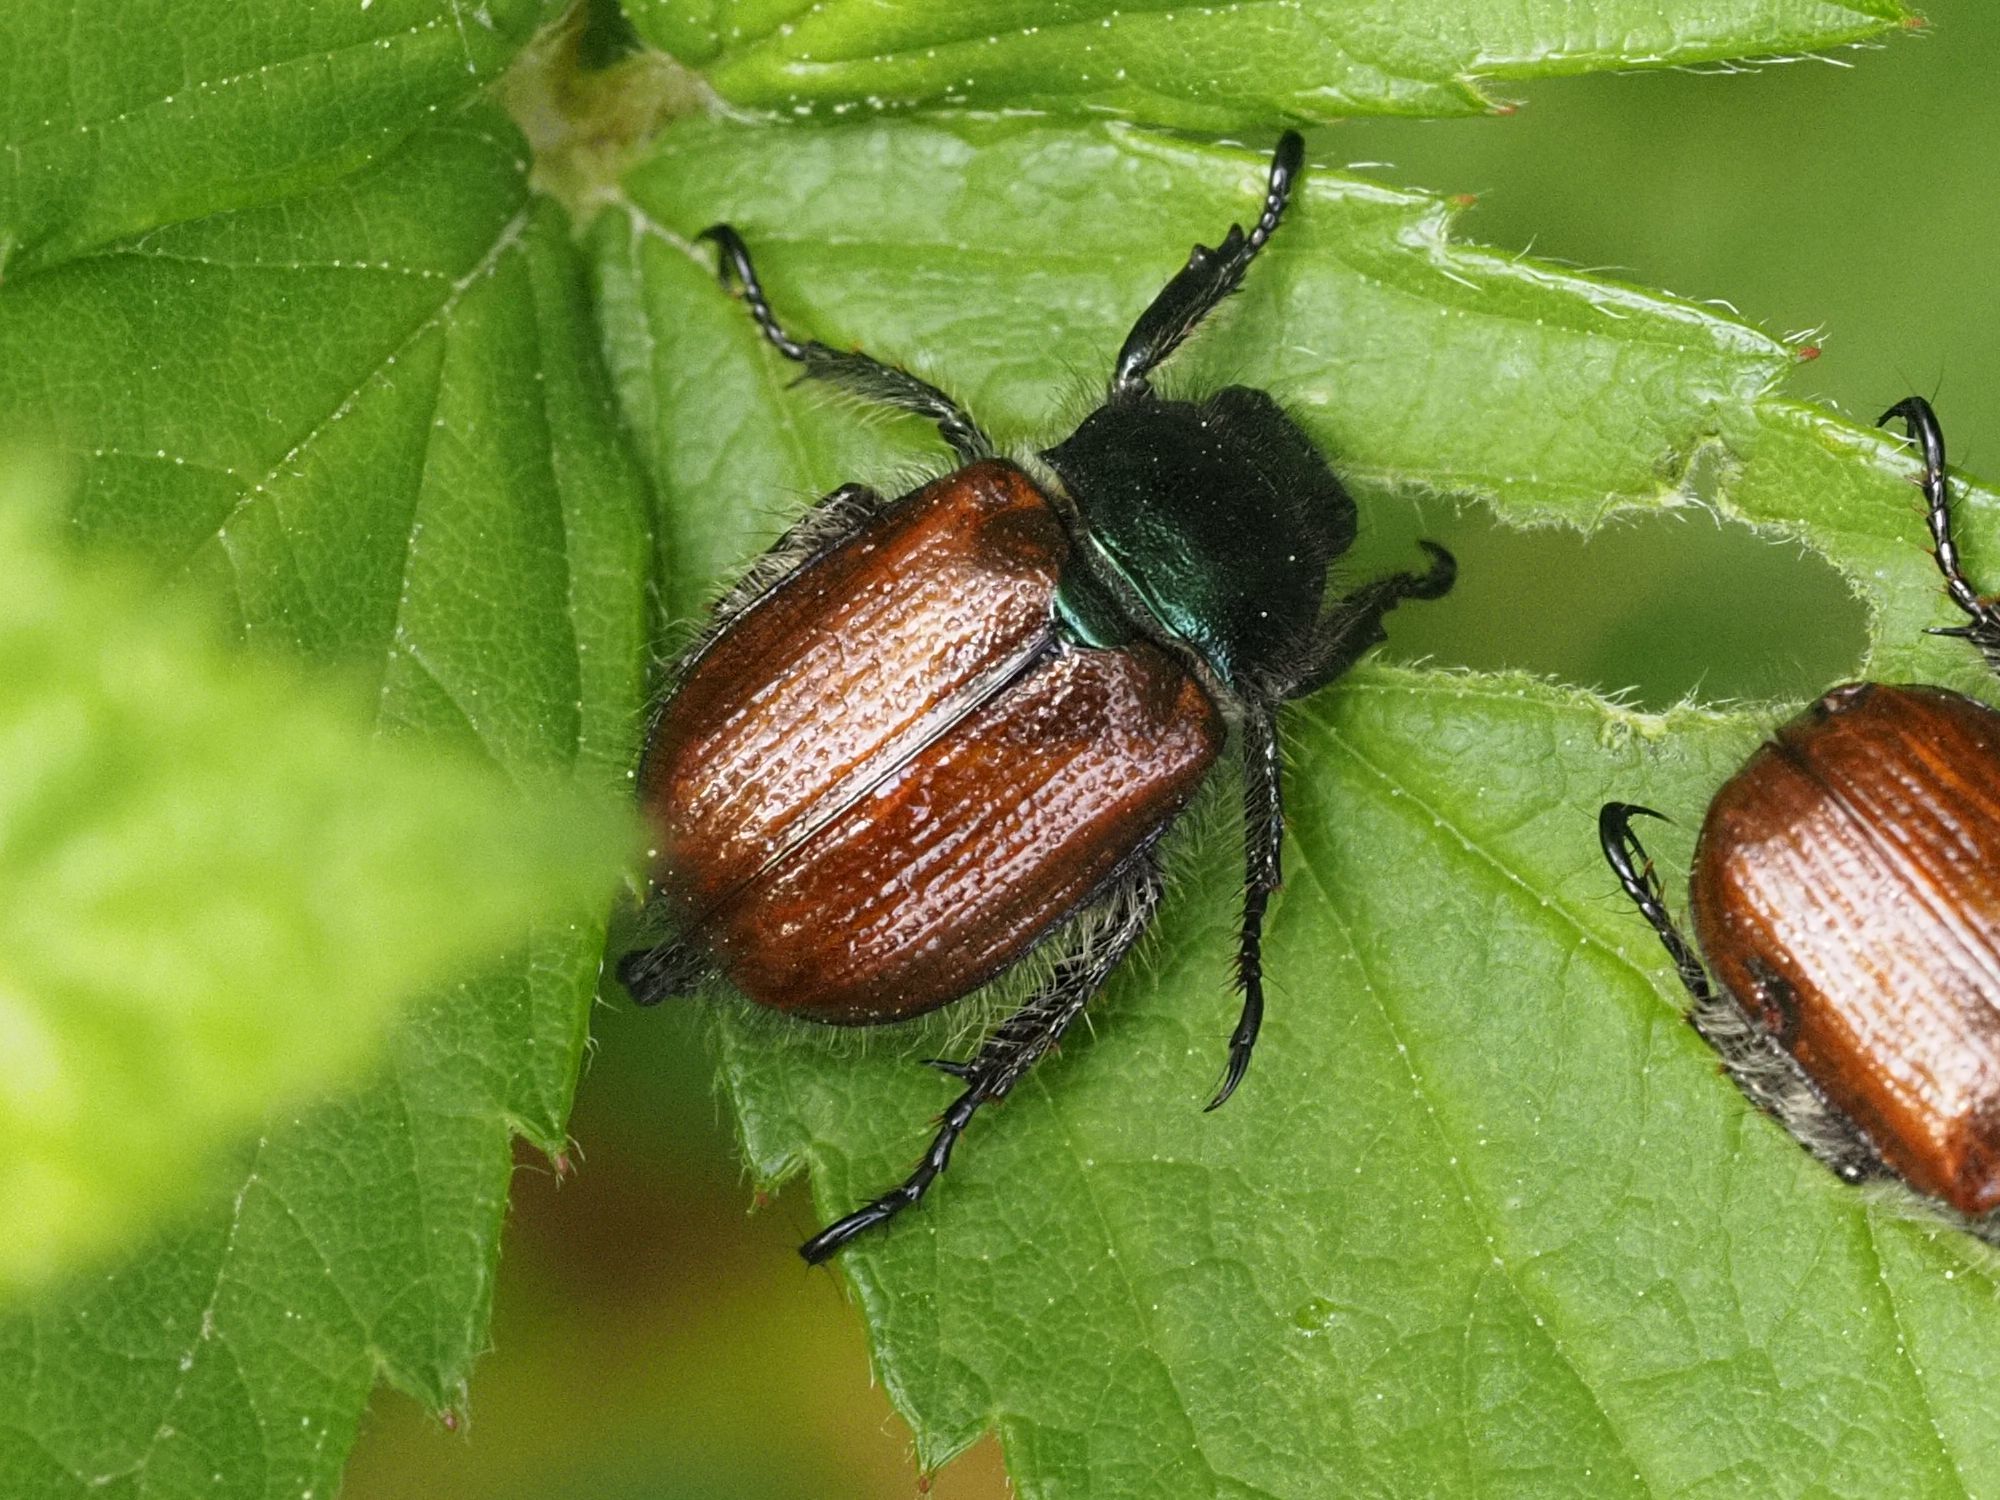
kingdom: Animalia
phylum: Arthropoda
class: Insecta
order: Coleoptera
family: Scarabaeidae
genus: Phyllopertha
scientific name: Phyllopertha horticola
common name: Garden chafer
